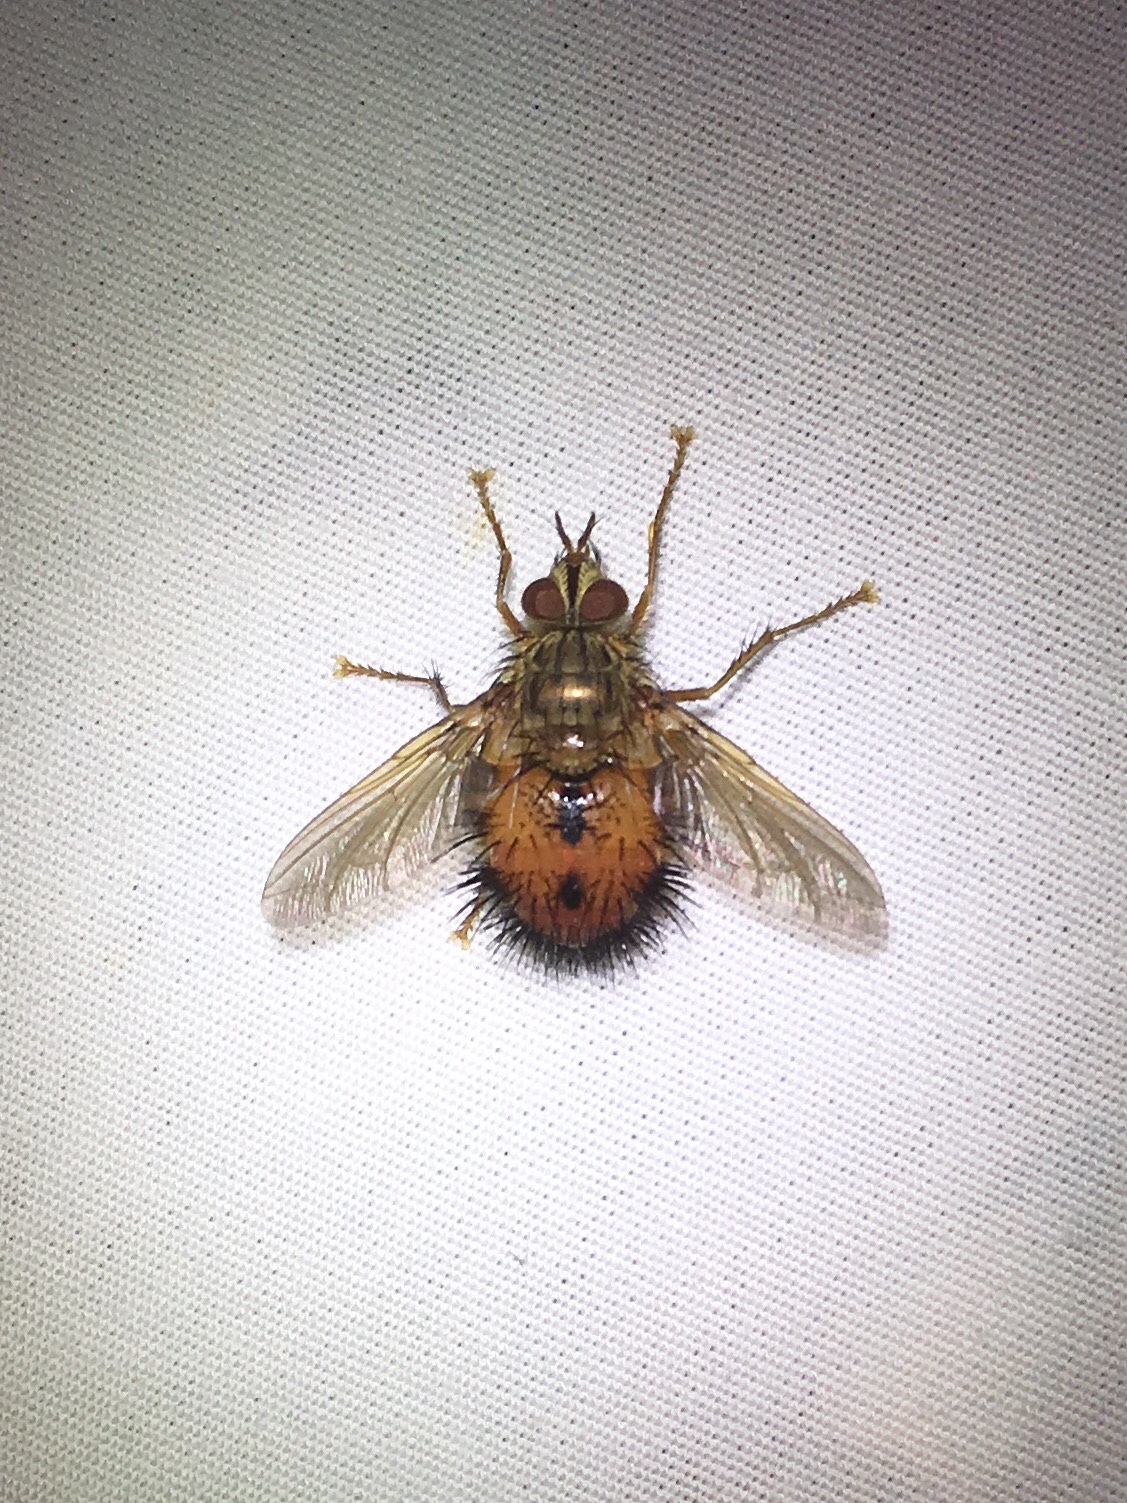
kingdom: Animalia
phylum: Arthropoda
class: Insecta
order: Diptera
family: Tachinidae
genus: Hystricia
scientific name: Hystricia abrupta
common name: Tomato bristle fly
